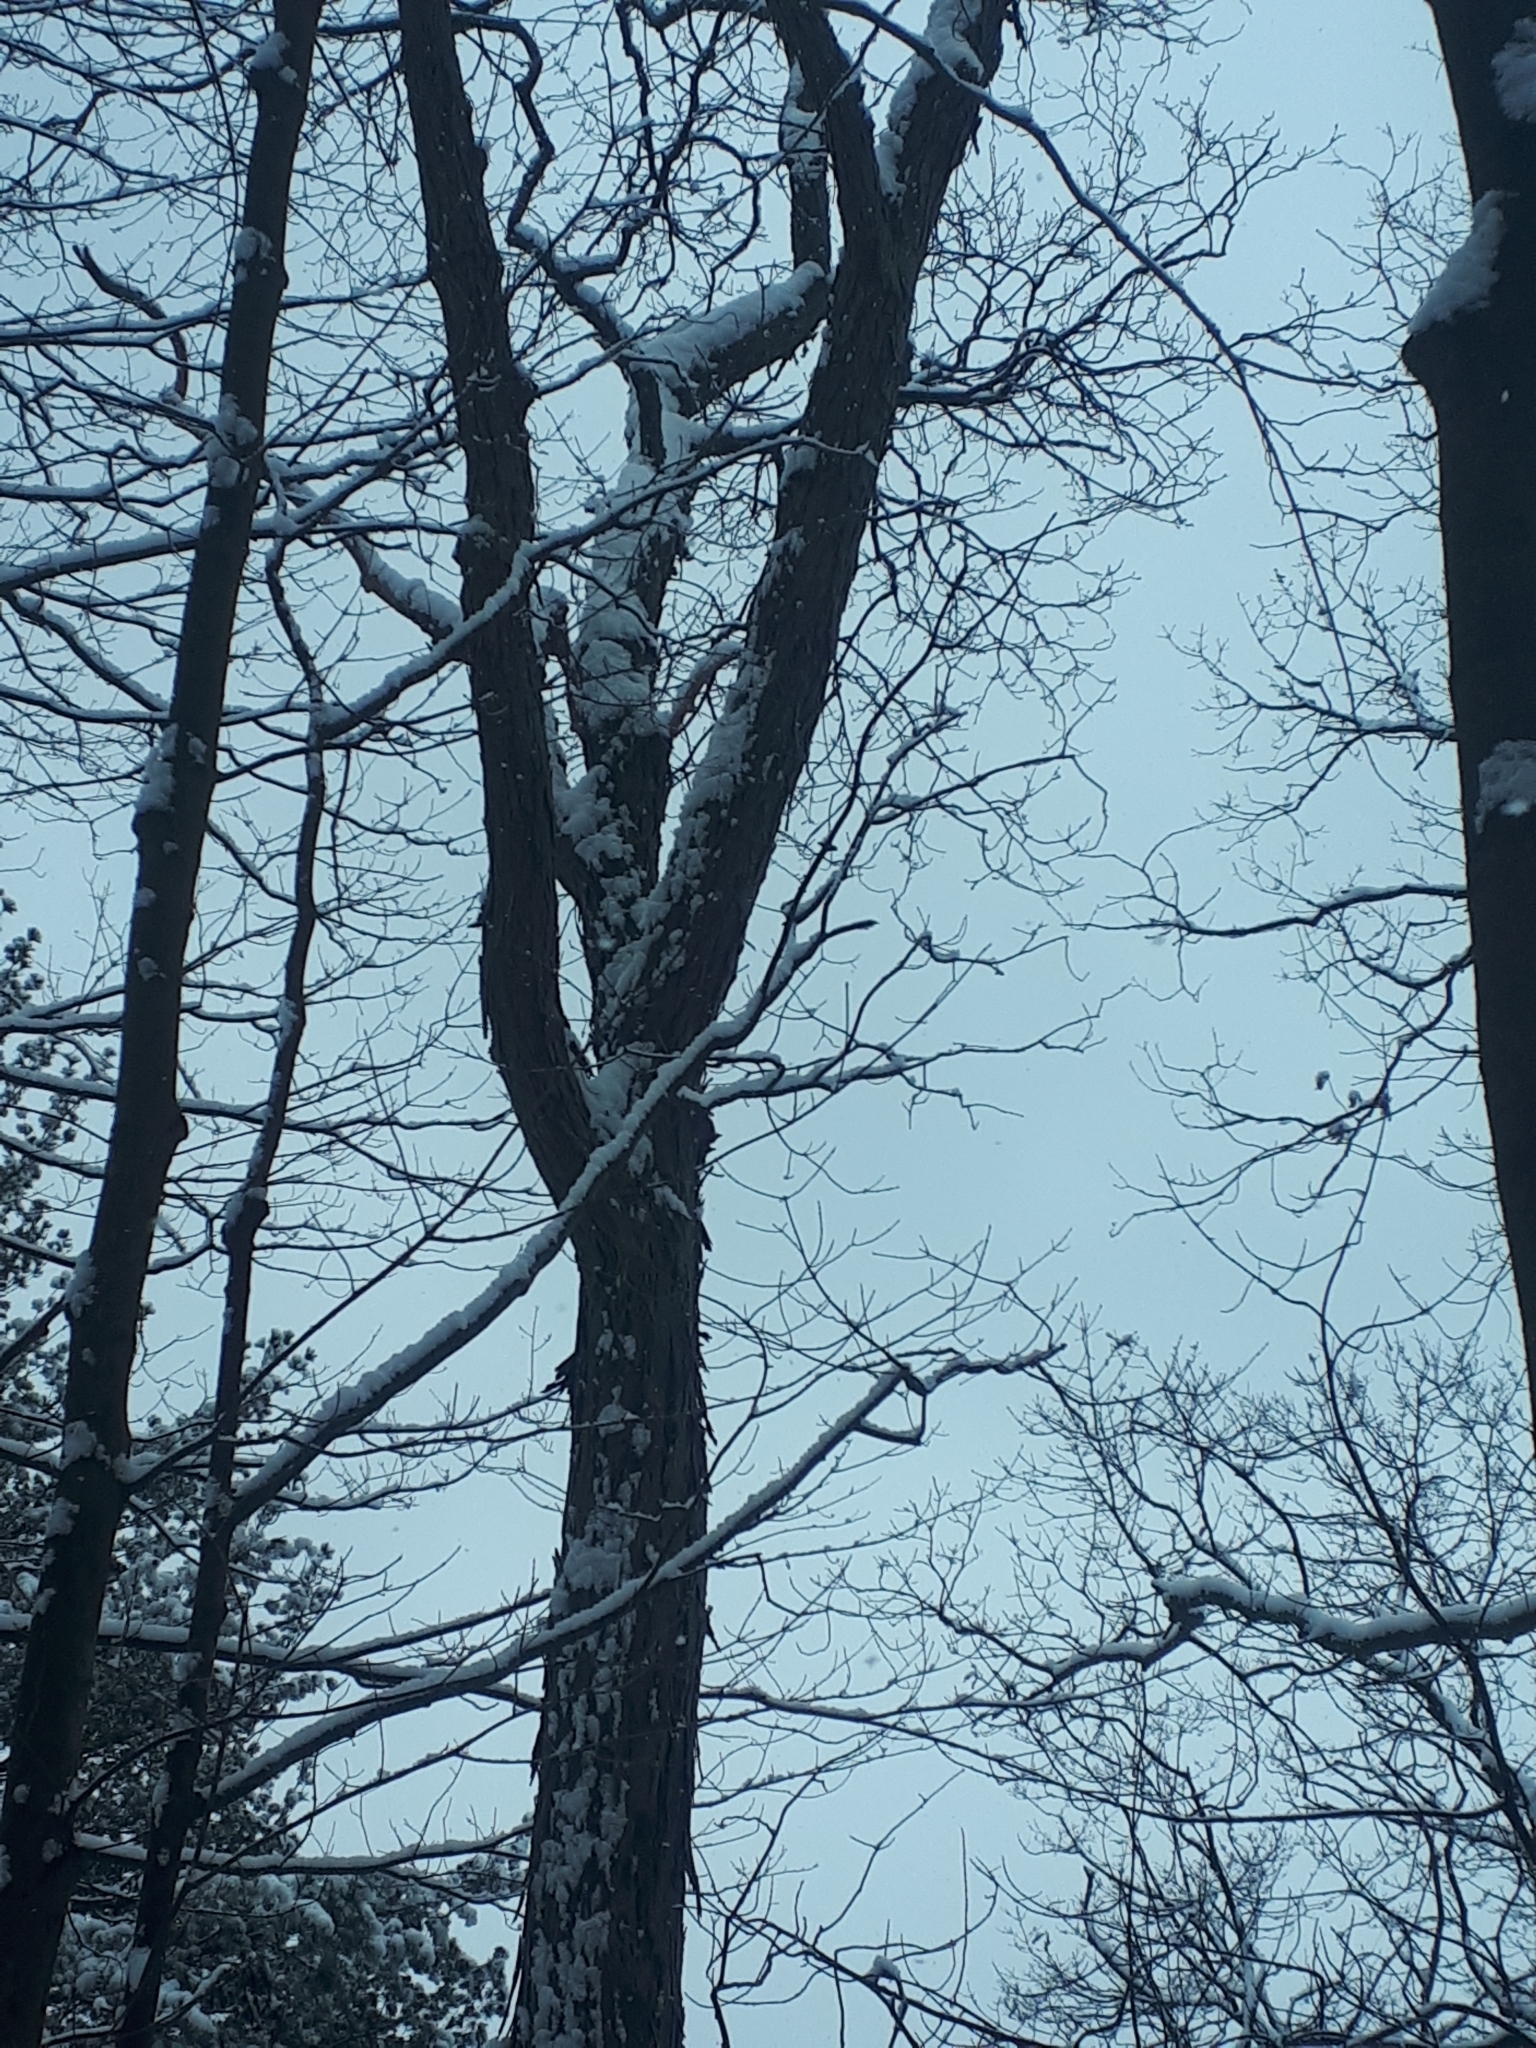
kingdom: Plantae
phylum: Tracheophyta
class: Magnoliopsida
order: Fagales
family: Juglandaceae
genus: Carya
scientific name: Carya ovata
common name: Shagbark hickory
